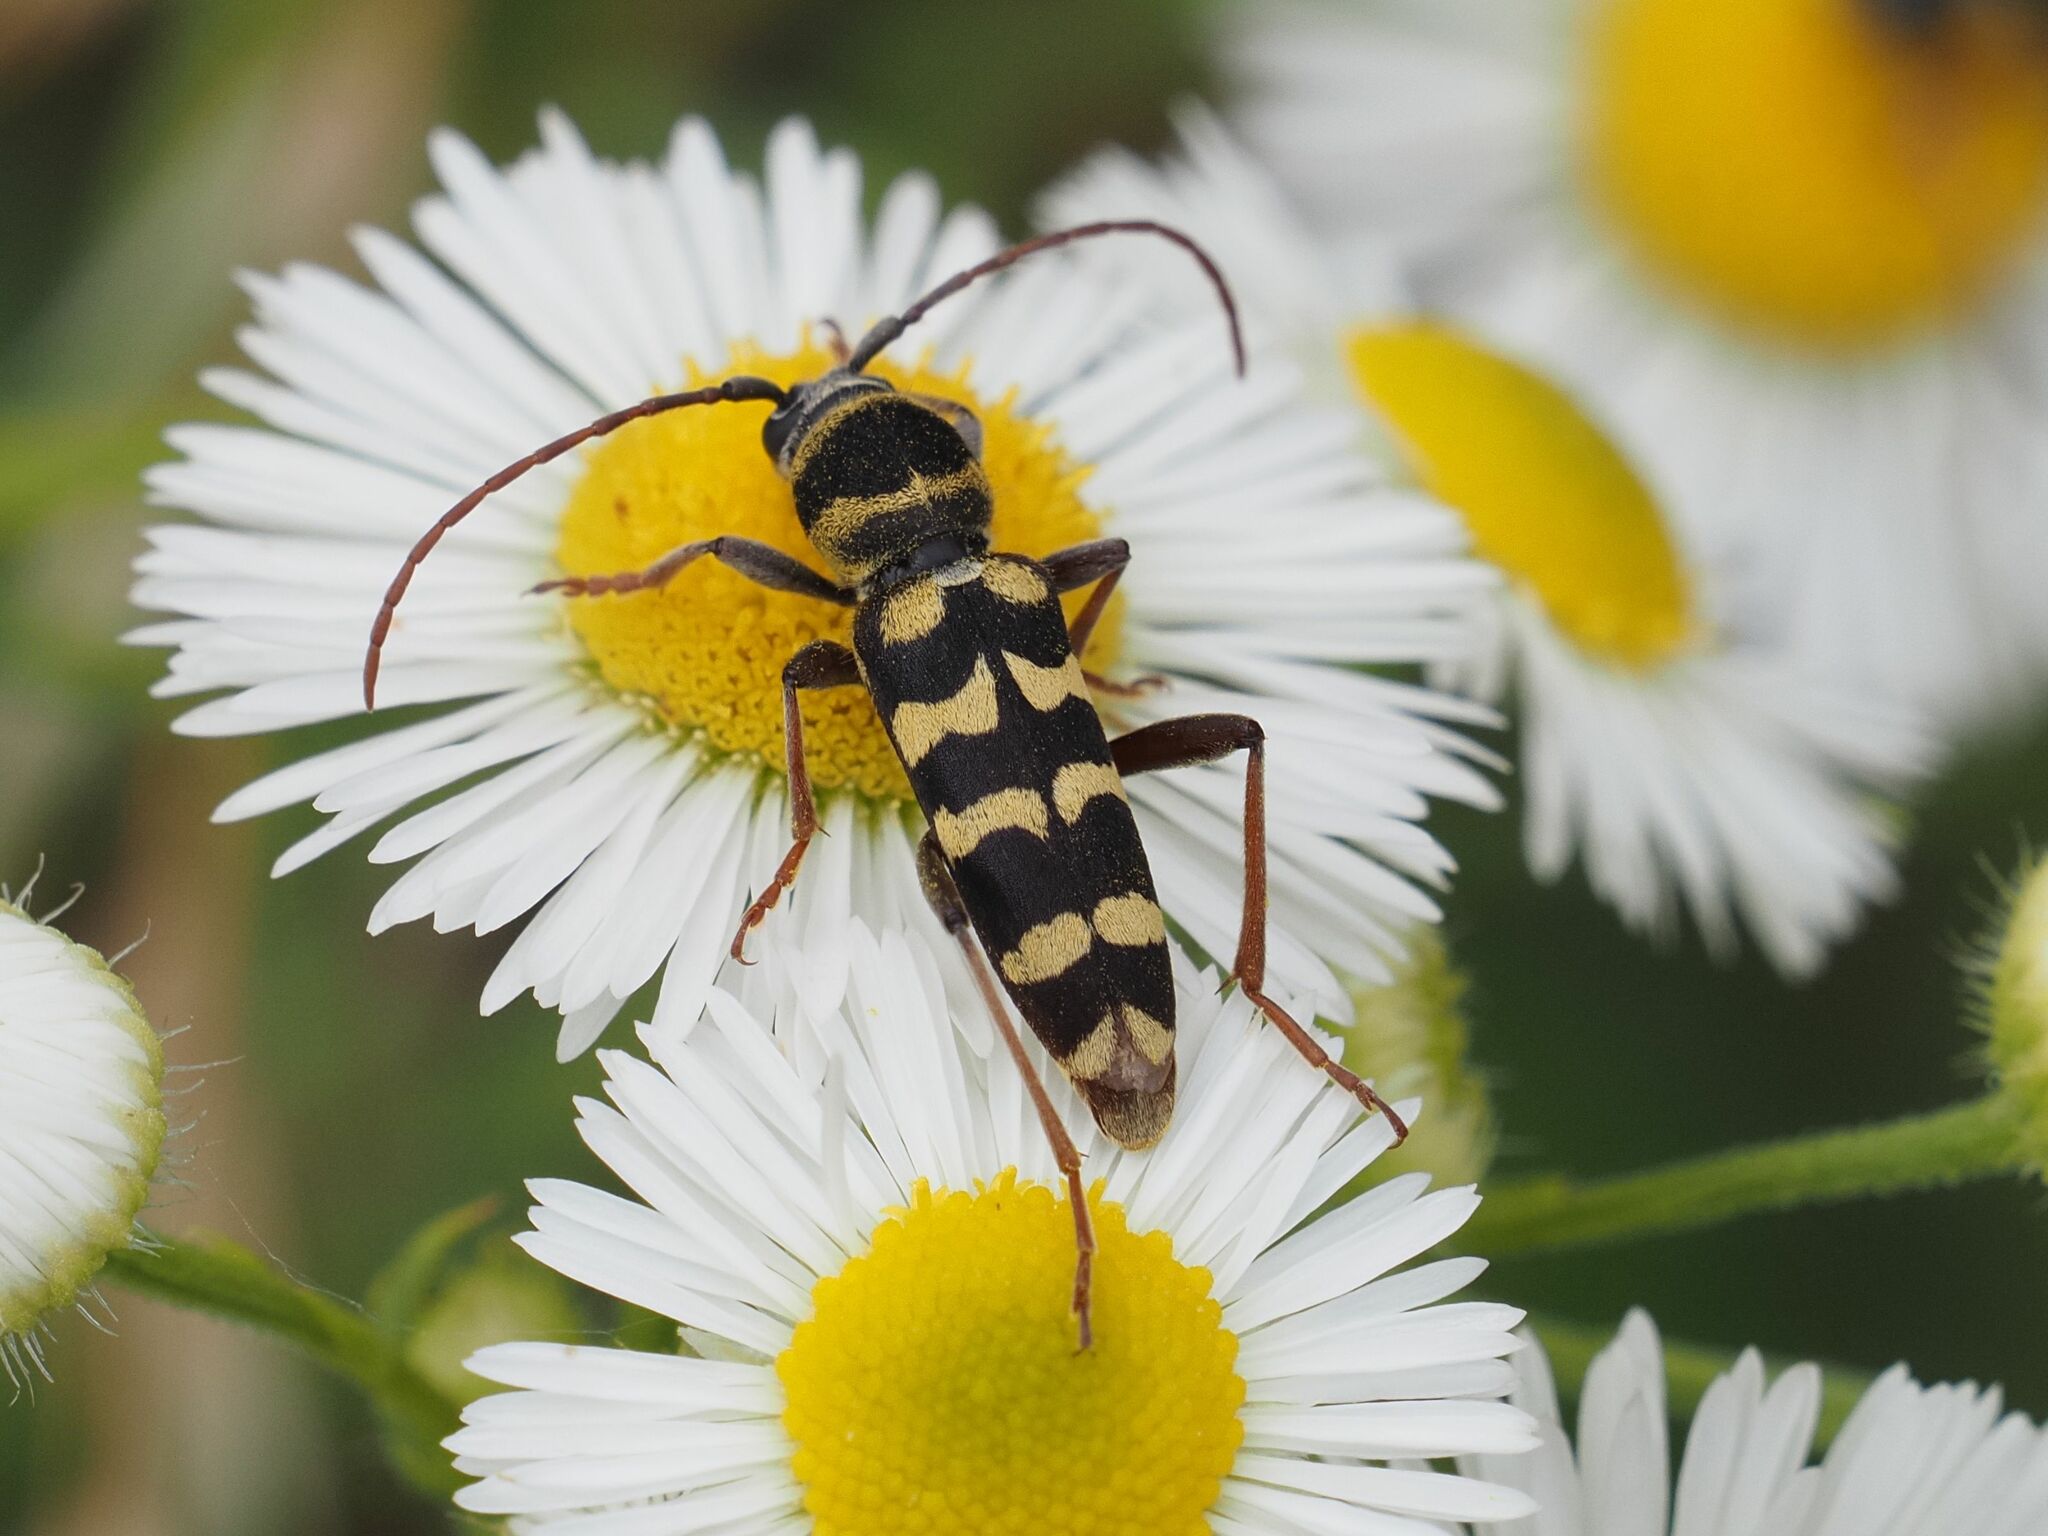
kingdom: Animalia
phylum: Arthropoda
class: Insecta
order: Coleoptera
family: Cerambycidae
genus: Plagionotus
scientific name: Plagionotus floralis
